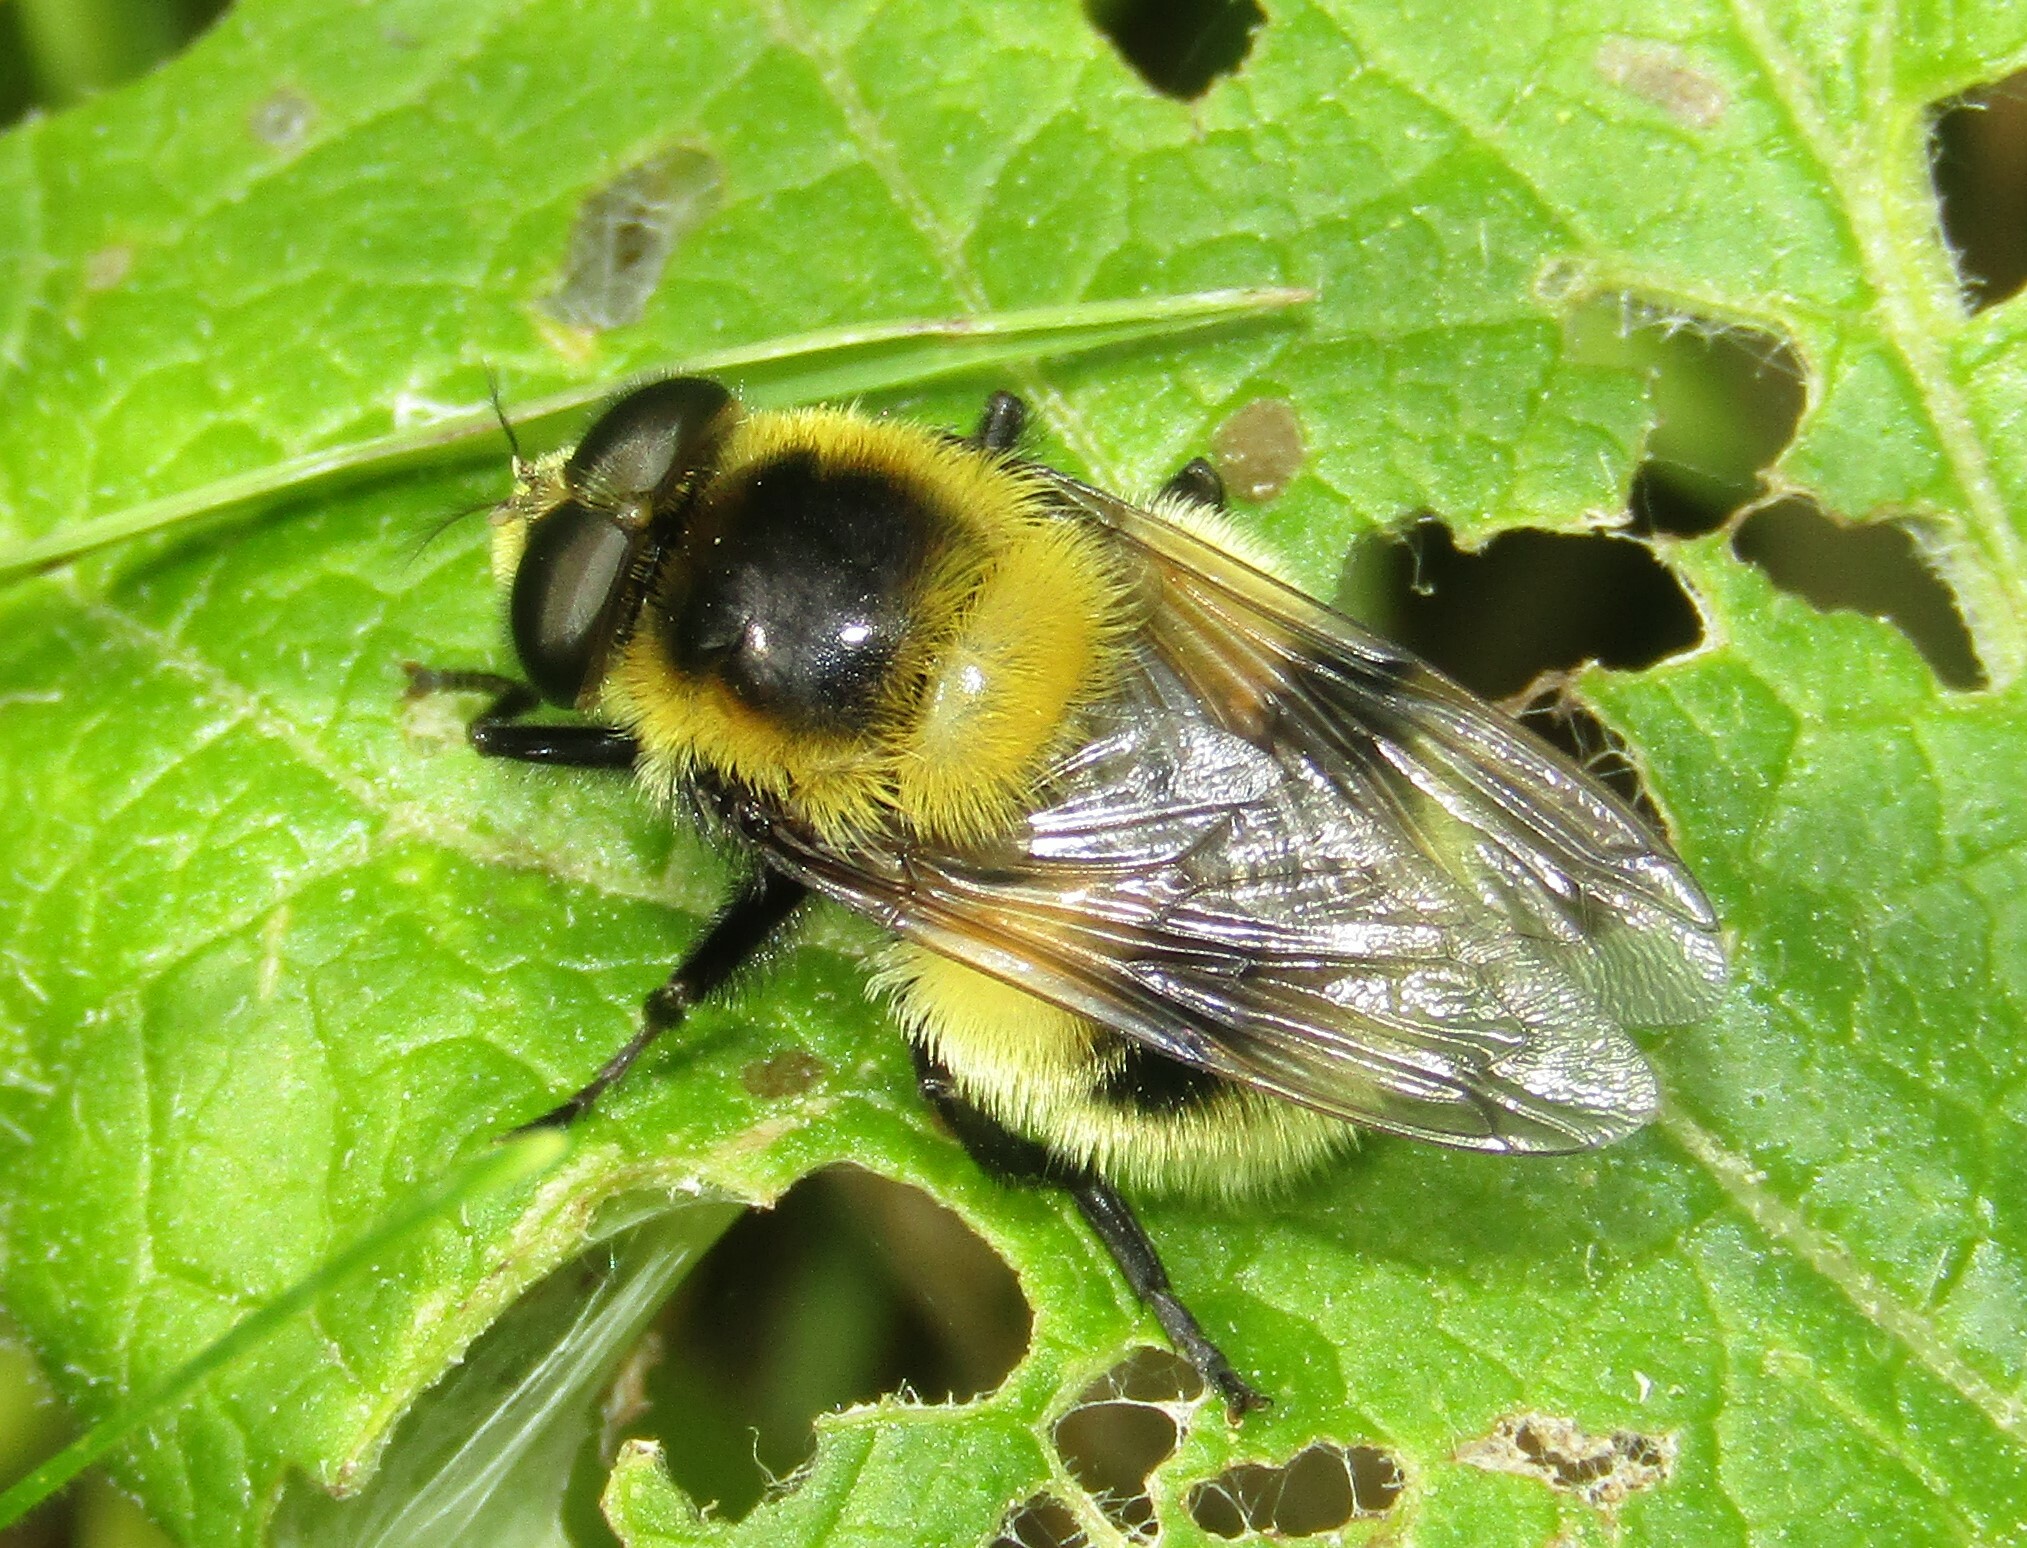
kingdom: Animalia
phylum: Arthropoda
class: Insecta
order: Diptera
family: Syrphidae
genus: Volucella
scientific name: Volucella bombylans
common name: Bumble bee hover fly
